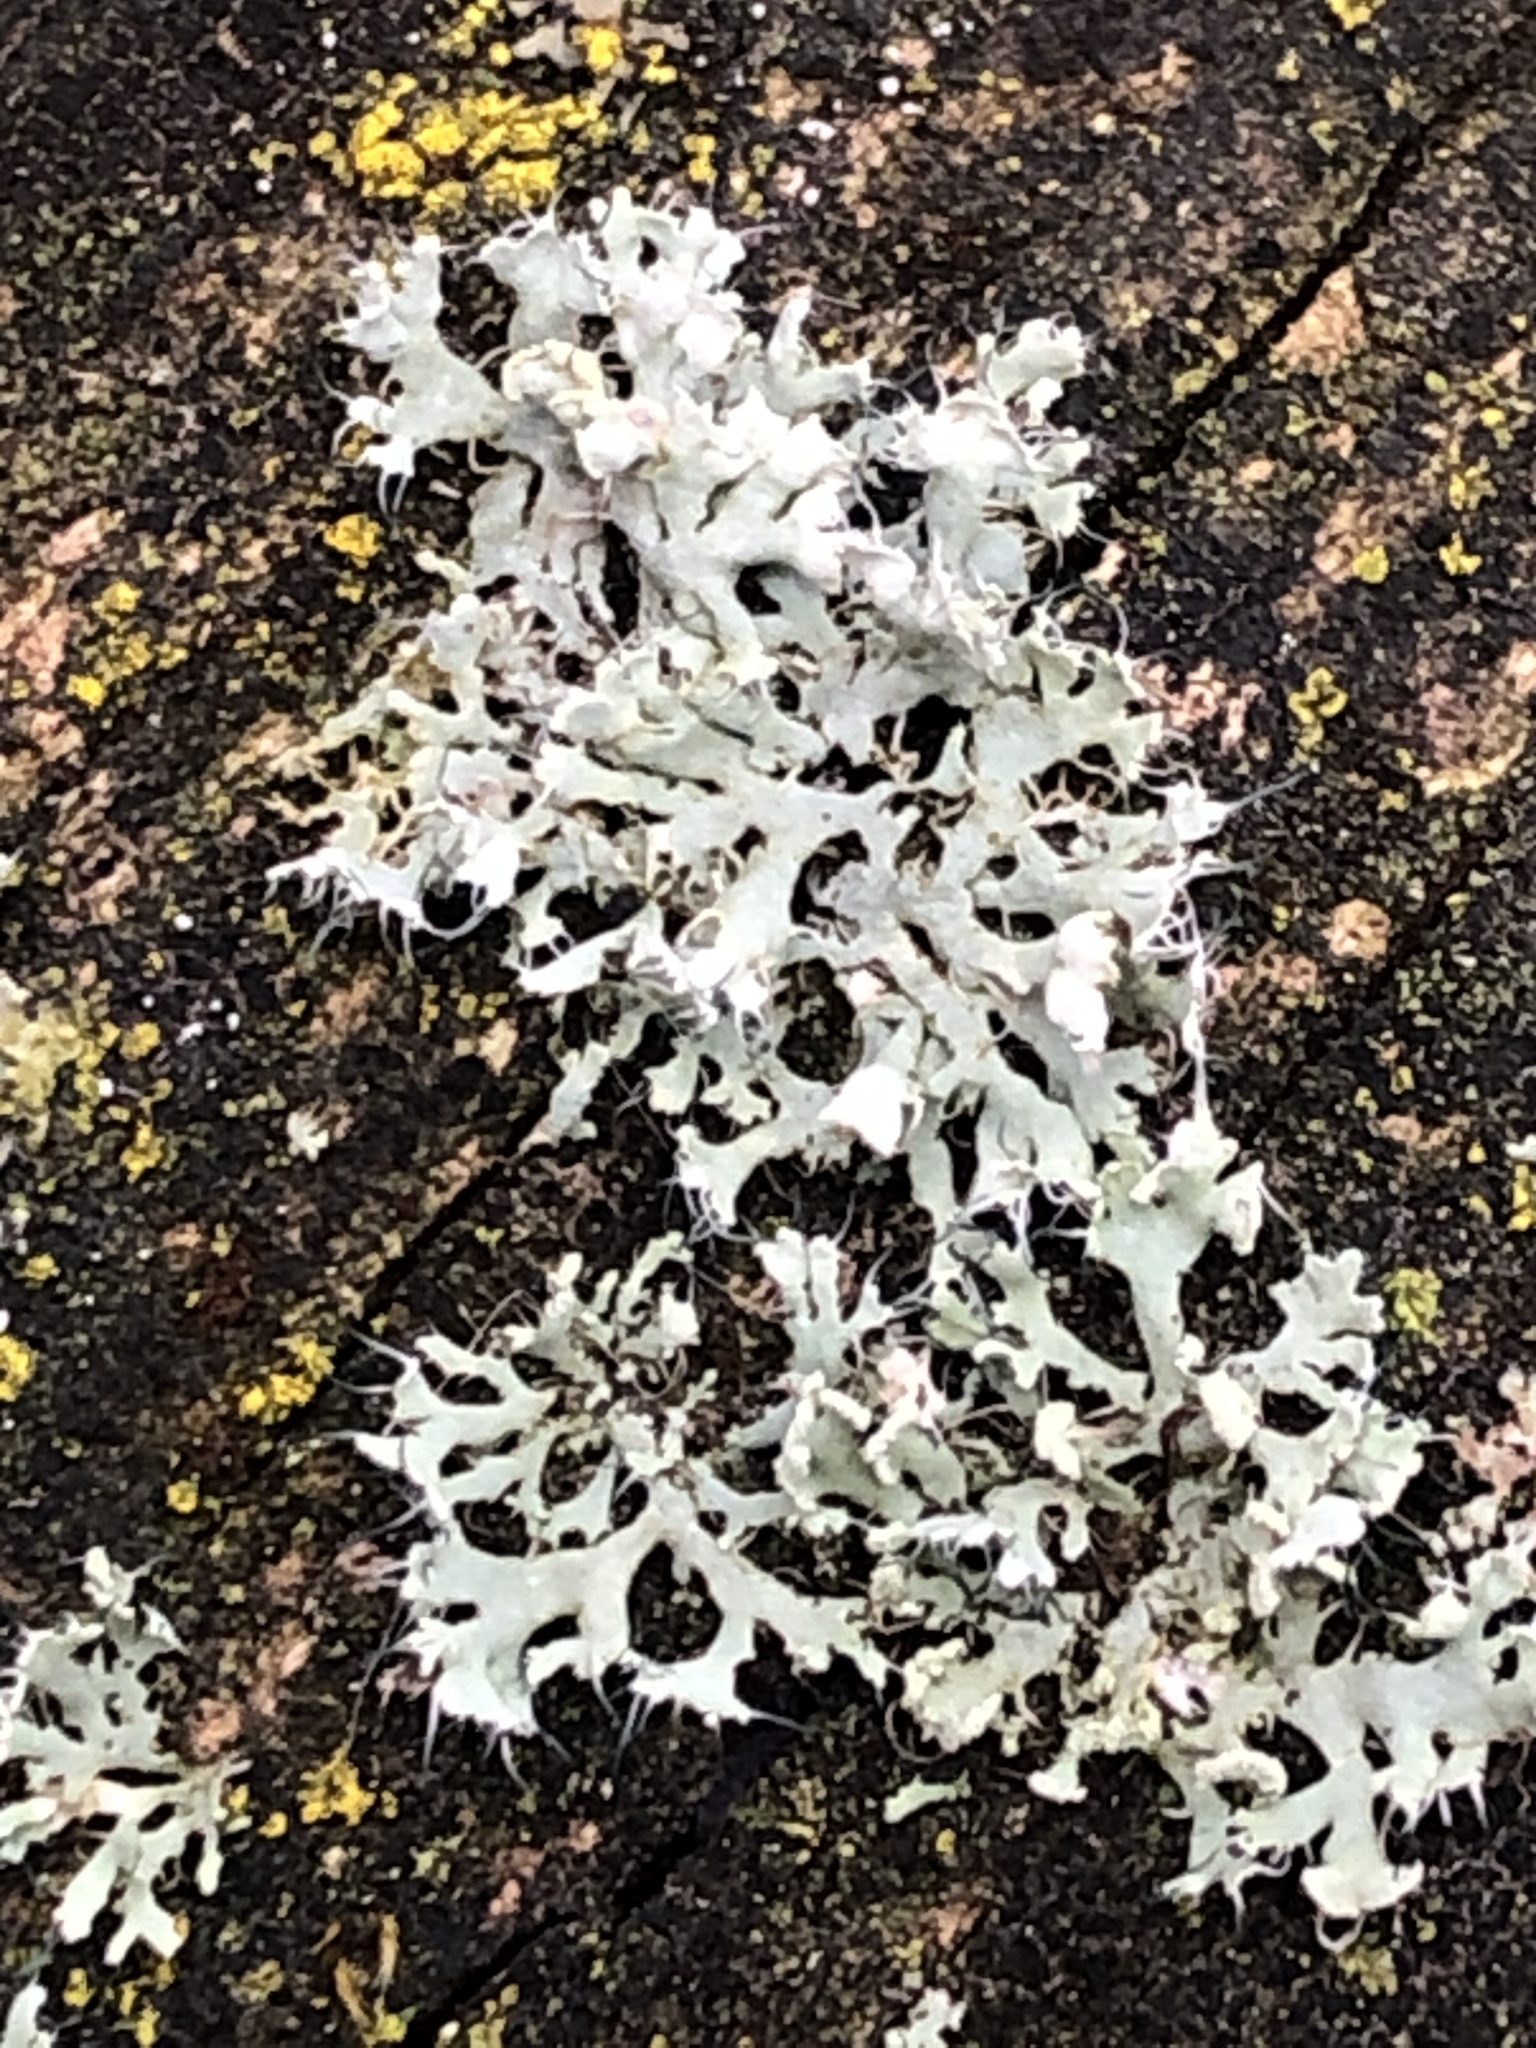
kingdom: Fungi
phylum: Ascomycota
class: Lecanoromycetes
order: Caliciales
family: Physciaceae
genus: Physcia
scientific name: Physcia adscendens
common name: Hooded rosette lichen
